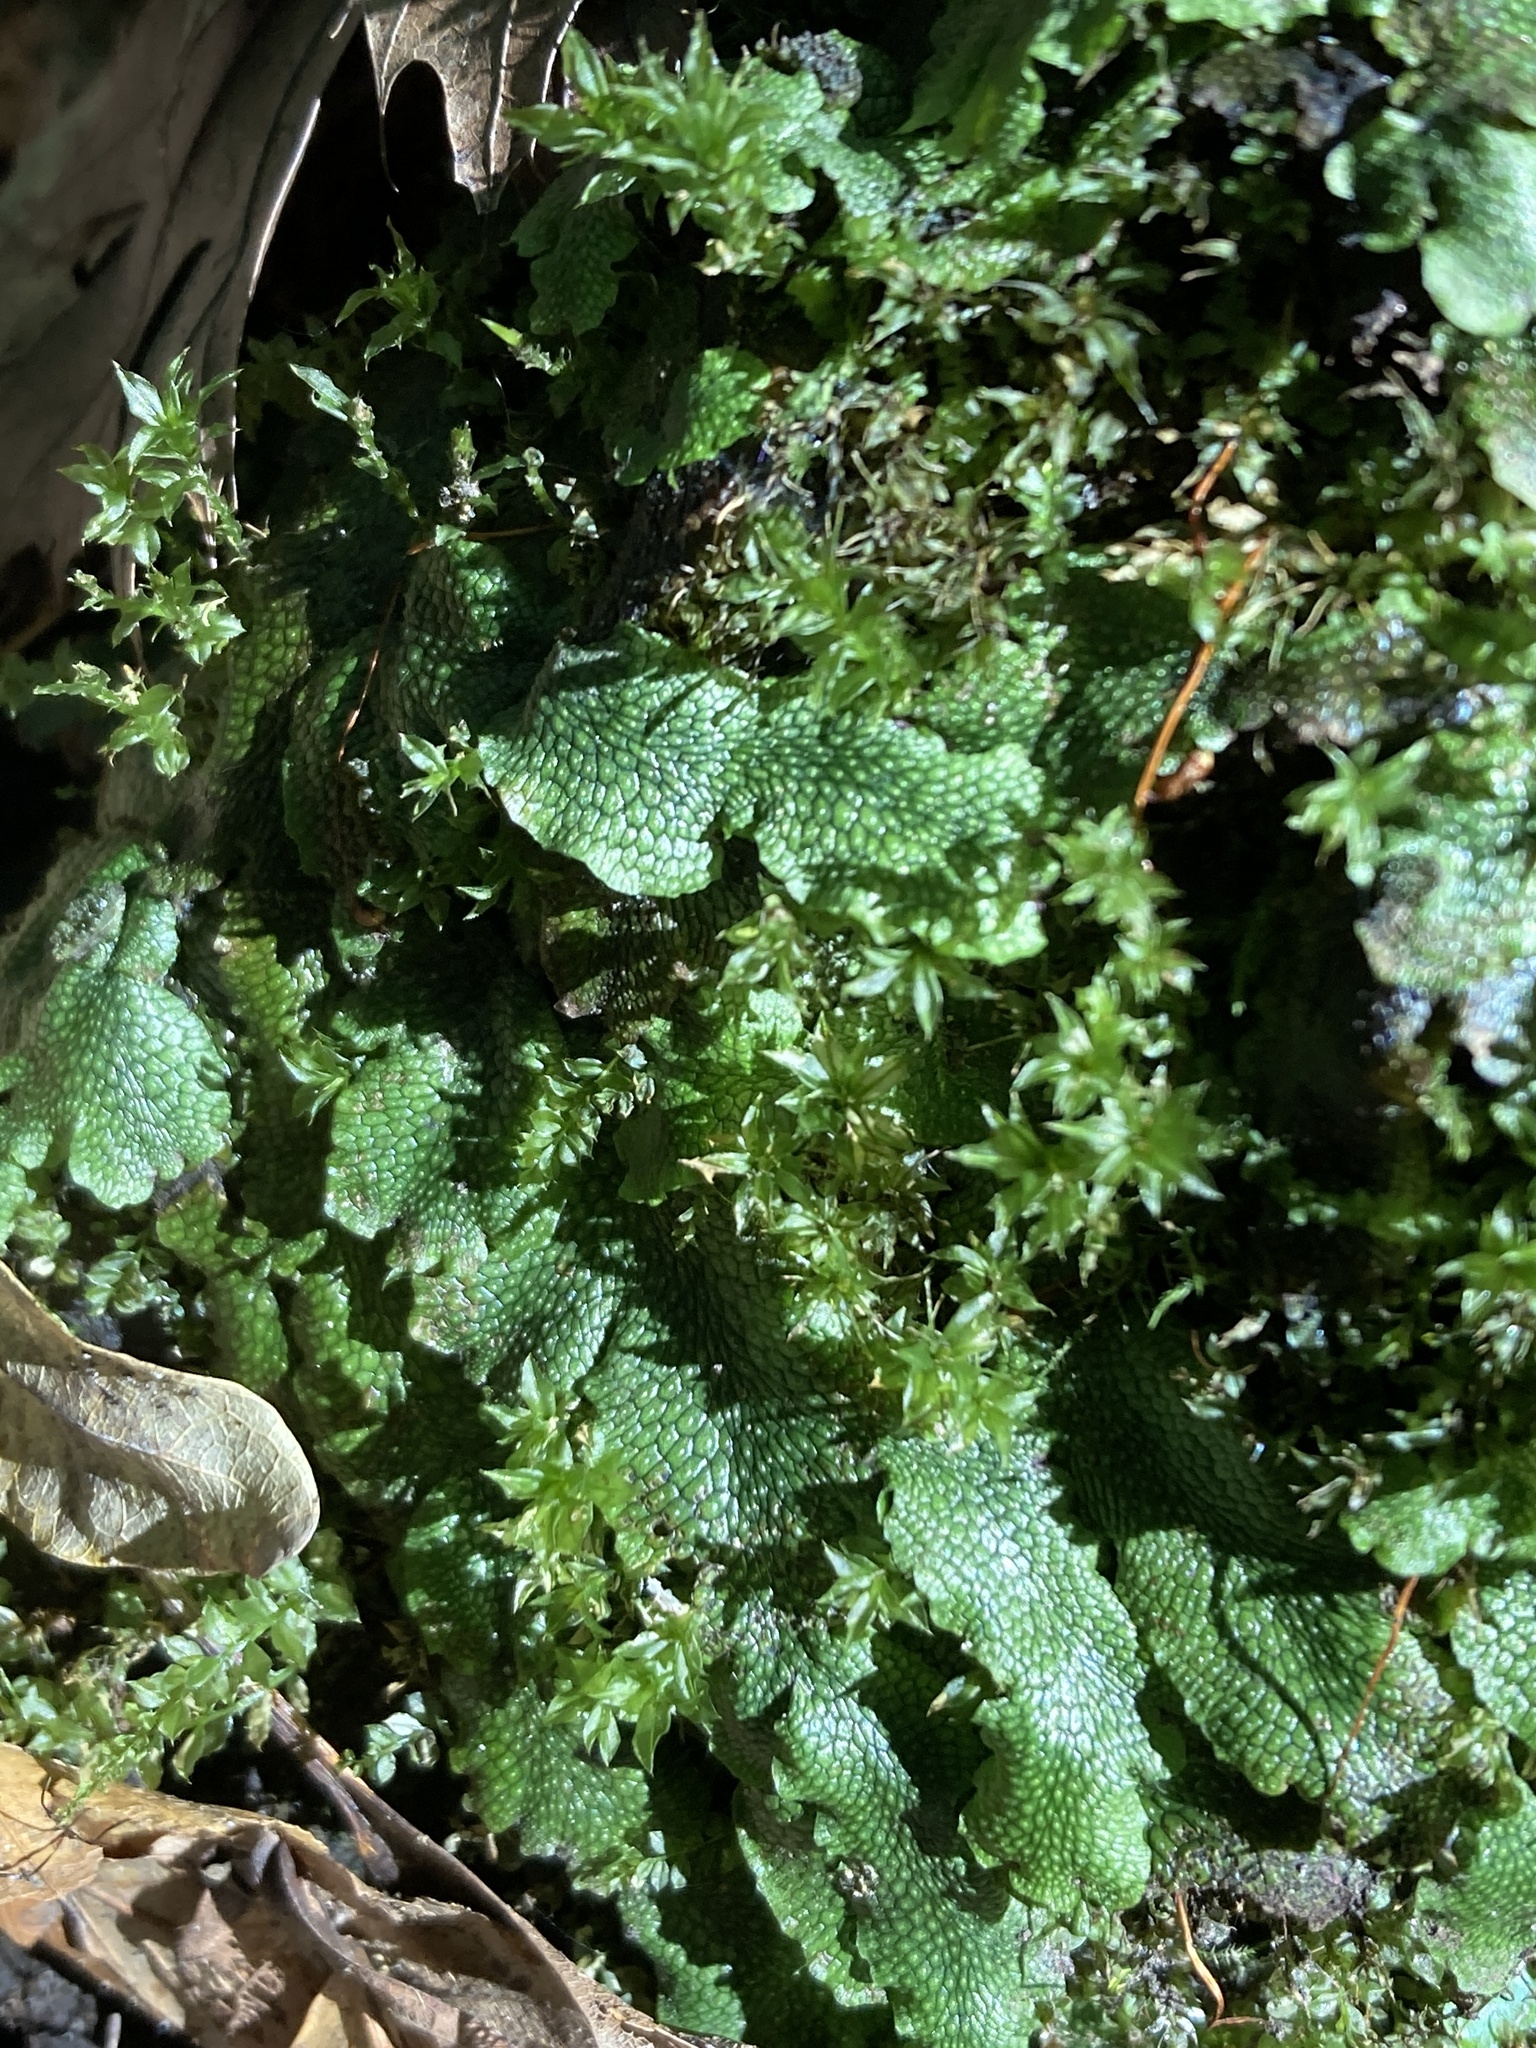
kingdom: Plantae
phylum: Marchantiophyta
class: Marchantiopsida
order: Marchantiales
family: Conocephalaceae
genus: Conocephalum
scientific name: Conocephalum salebrosum
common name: Cat-tongue liverwort
